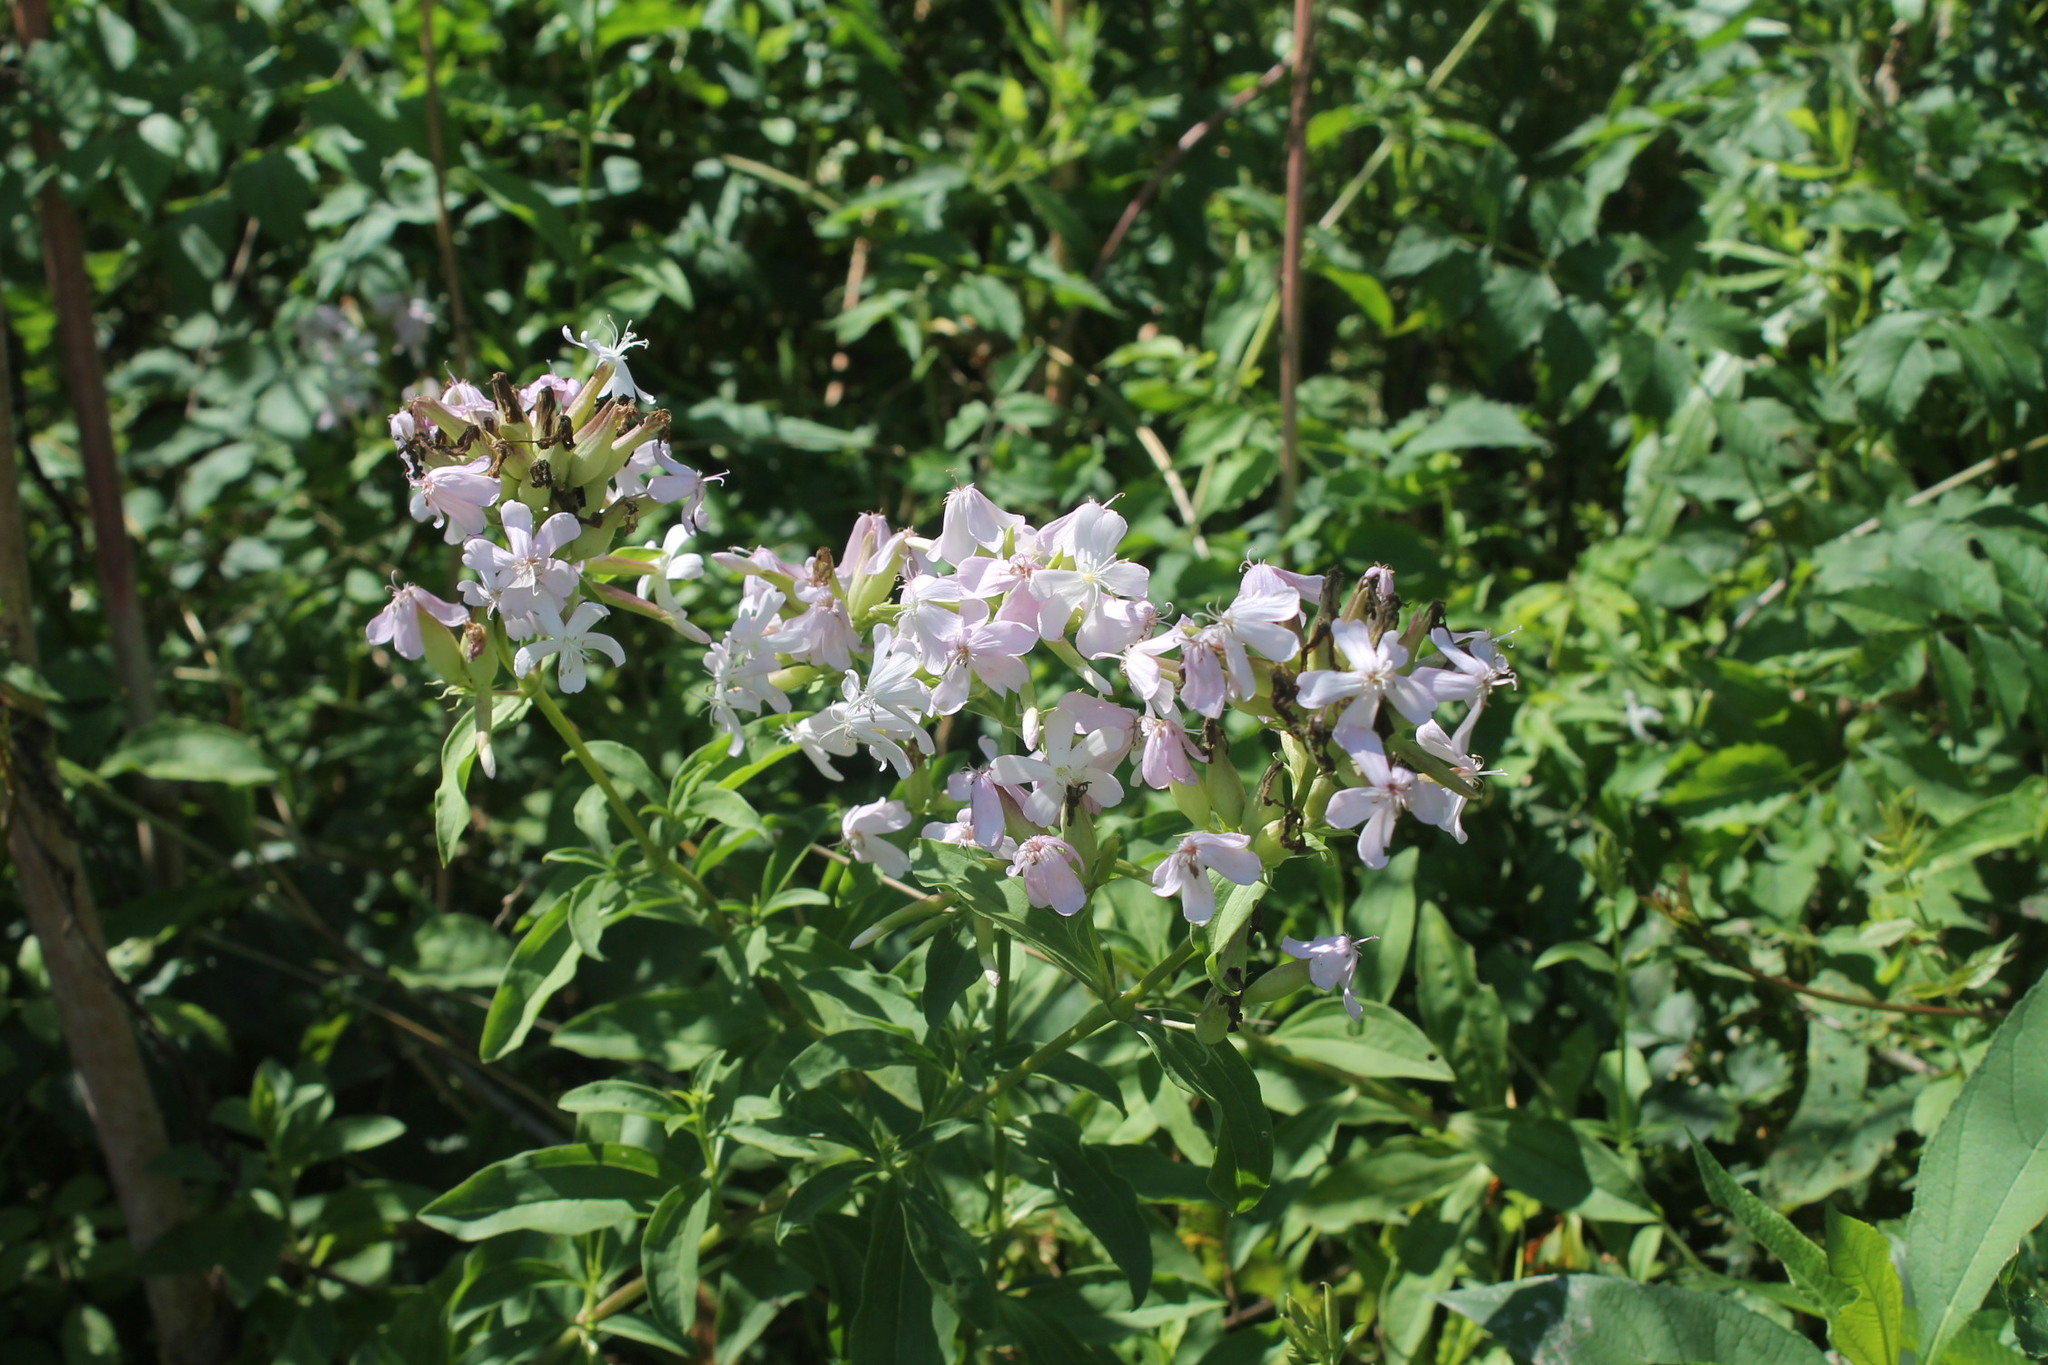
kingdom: Plantae
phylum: Tracheophyta
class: Magnoliopsida
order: Caryophyllales
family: Caryophyllaceae
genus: Saponaria
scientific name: Saponaria officinalis
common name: Soapwort
